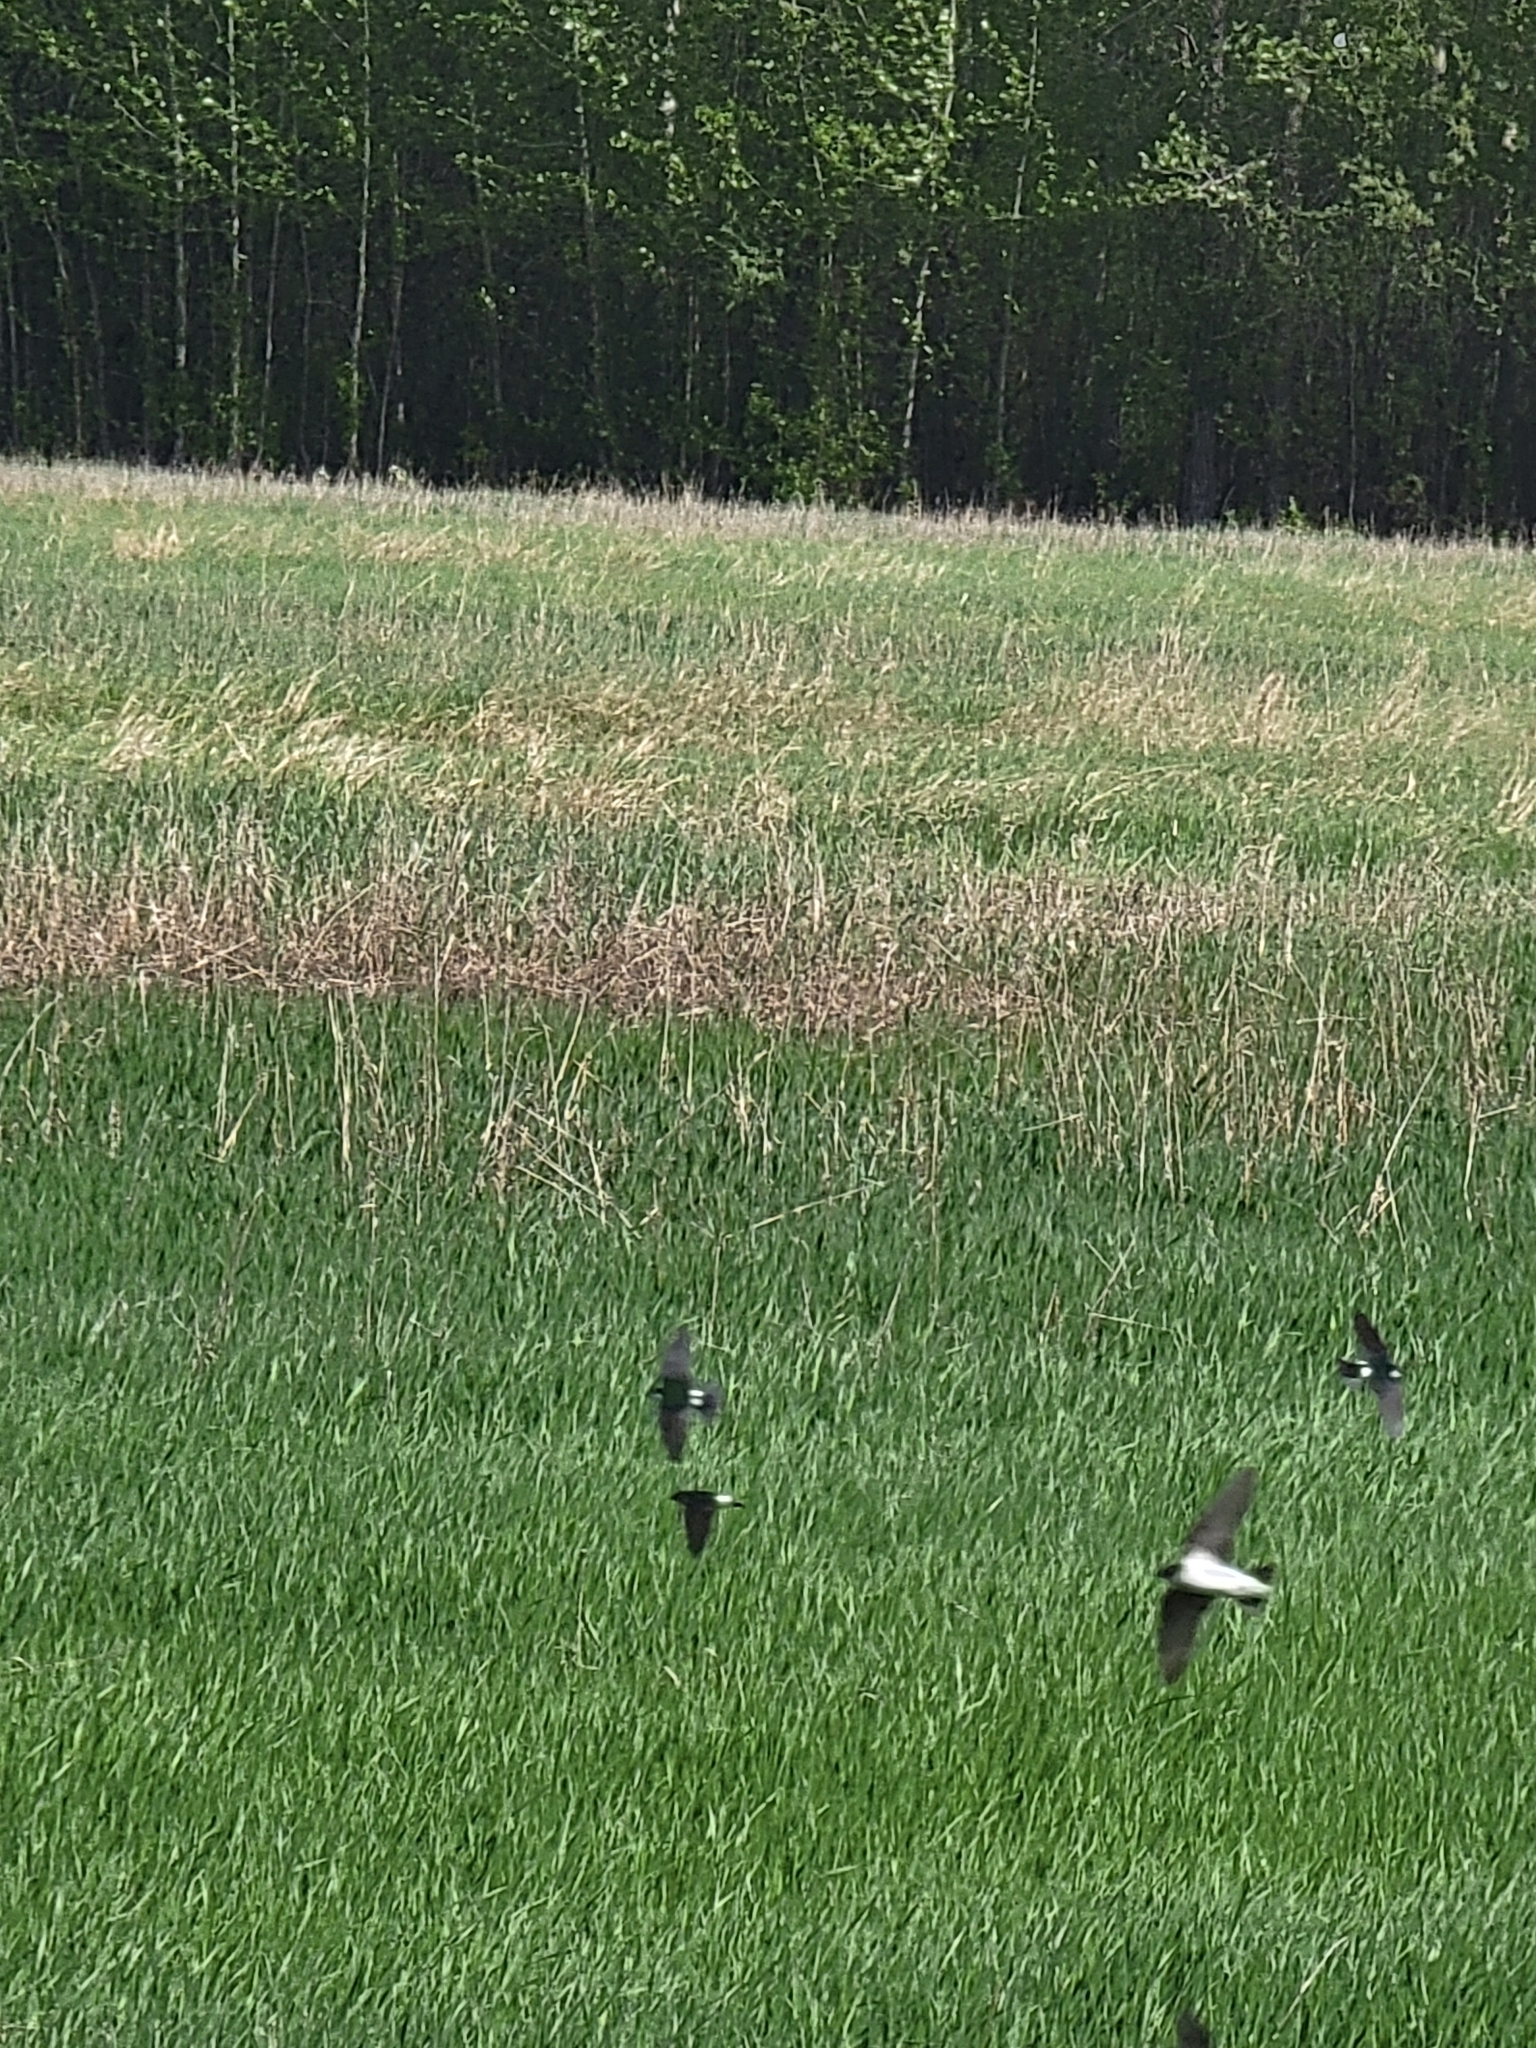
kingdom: Animalia
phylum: Chordata
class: Aves
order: Passeriformes
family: Hirundinidae
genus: Tachycineta
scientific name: Tachycineta bicolor
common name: Tree swallow
